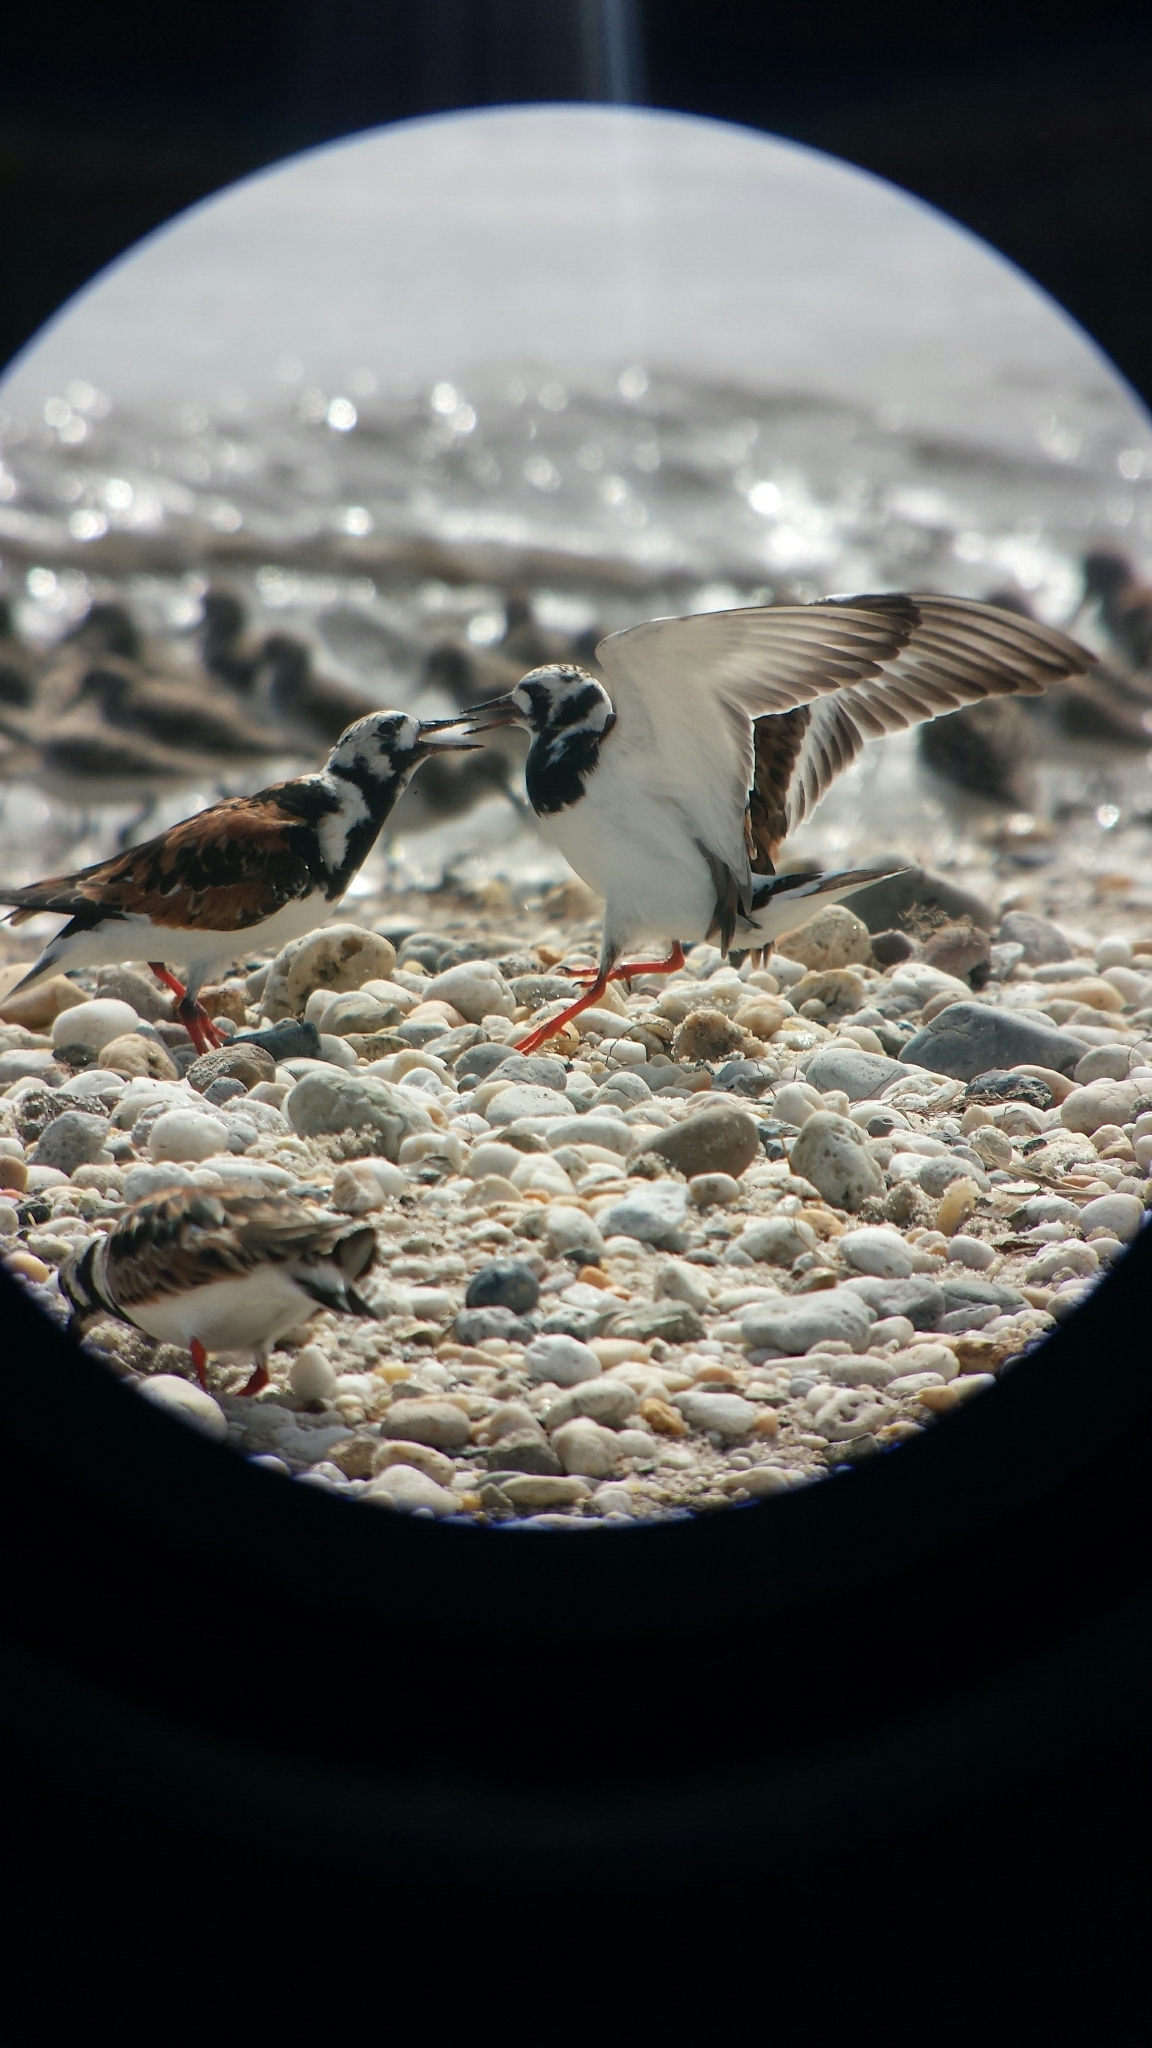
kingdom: Animalia
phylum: Chordata
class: Aves
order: Charadriiformes
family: Scolopacidae
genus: Arenaria
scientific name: Arenaria interpres
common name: Ruddy turnstone
